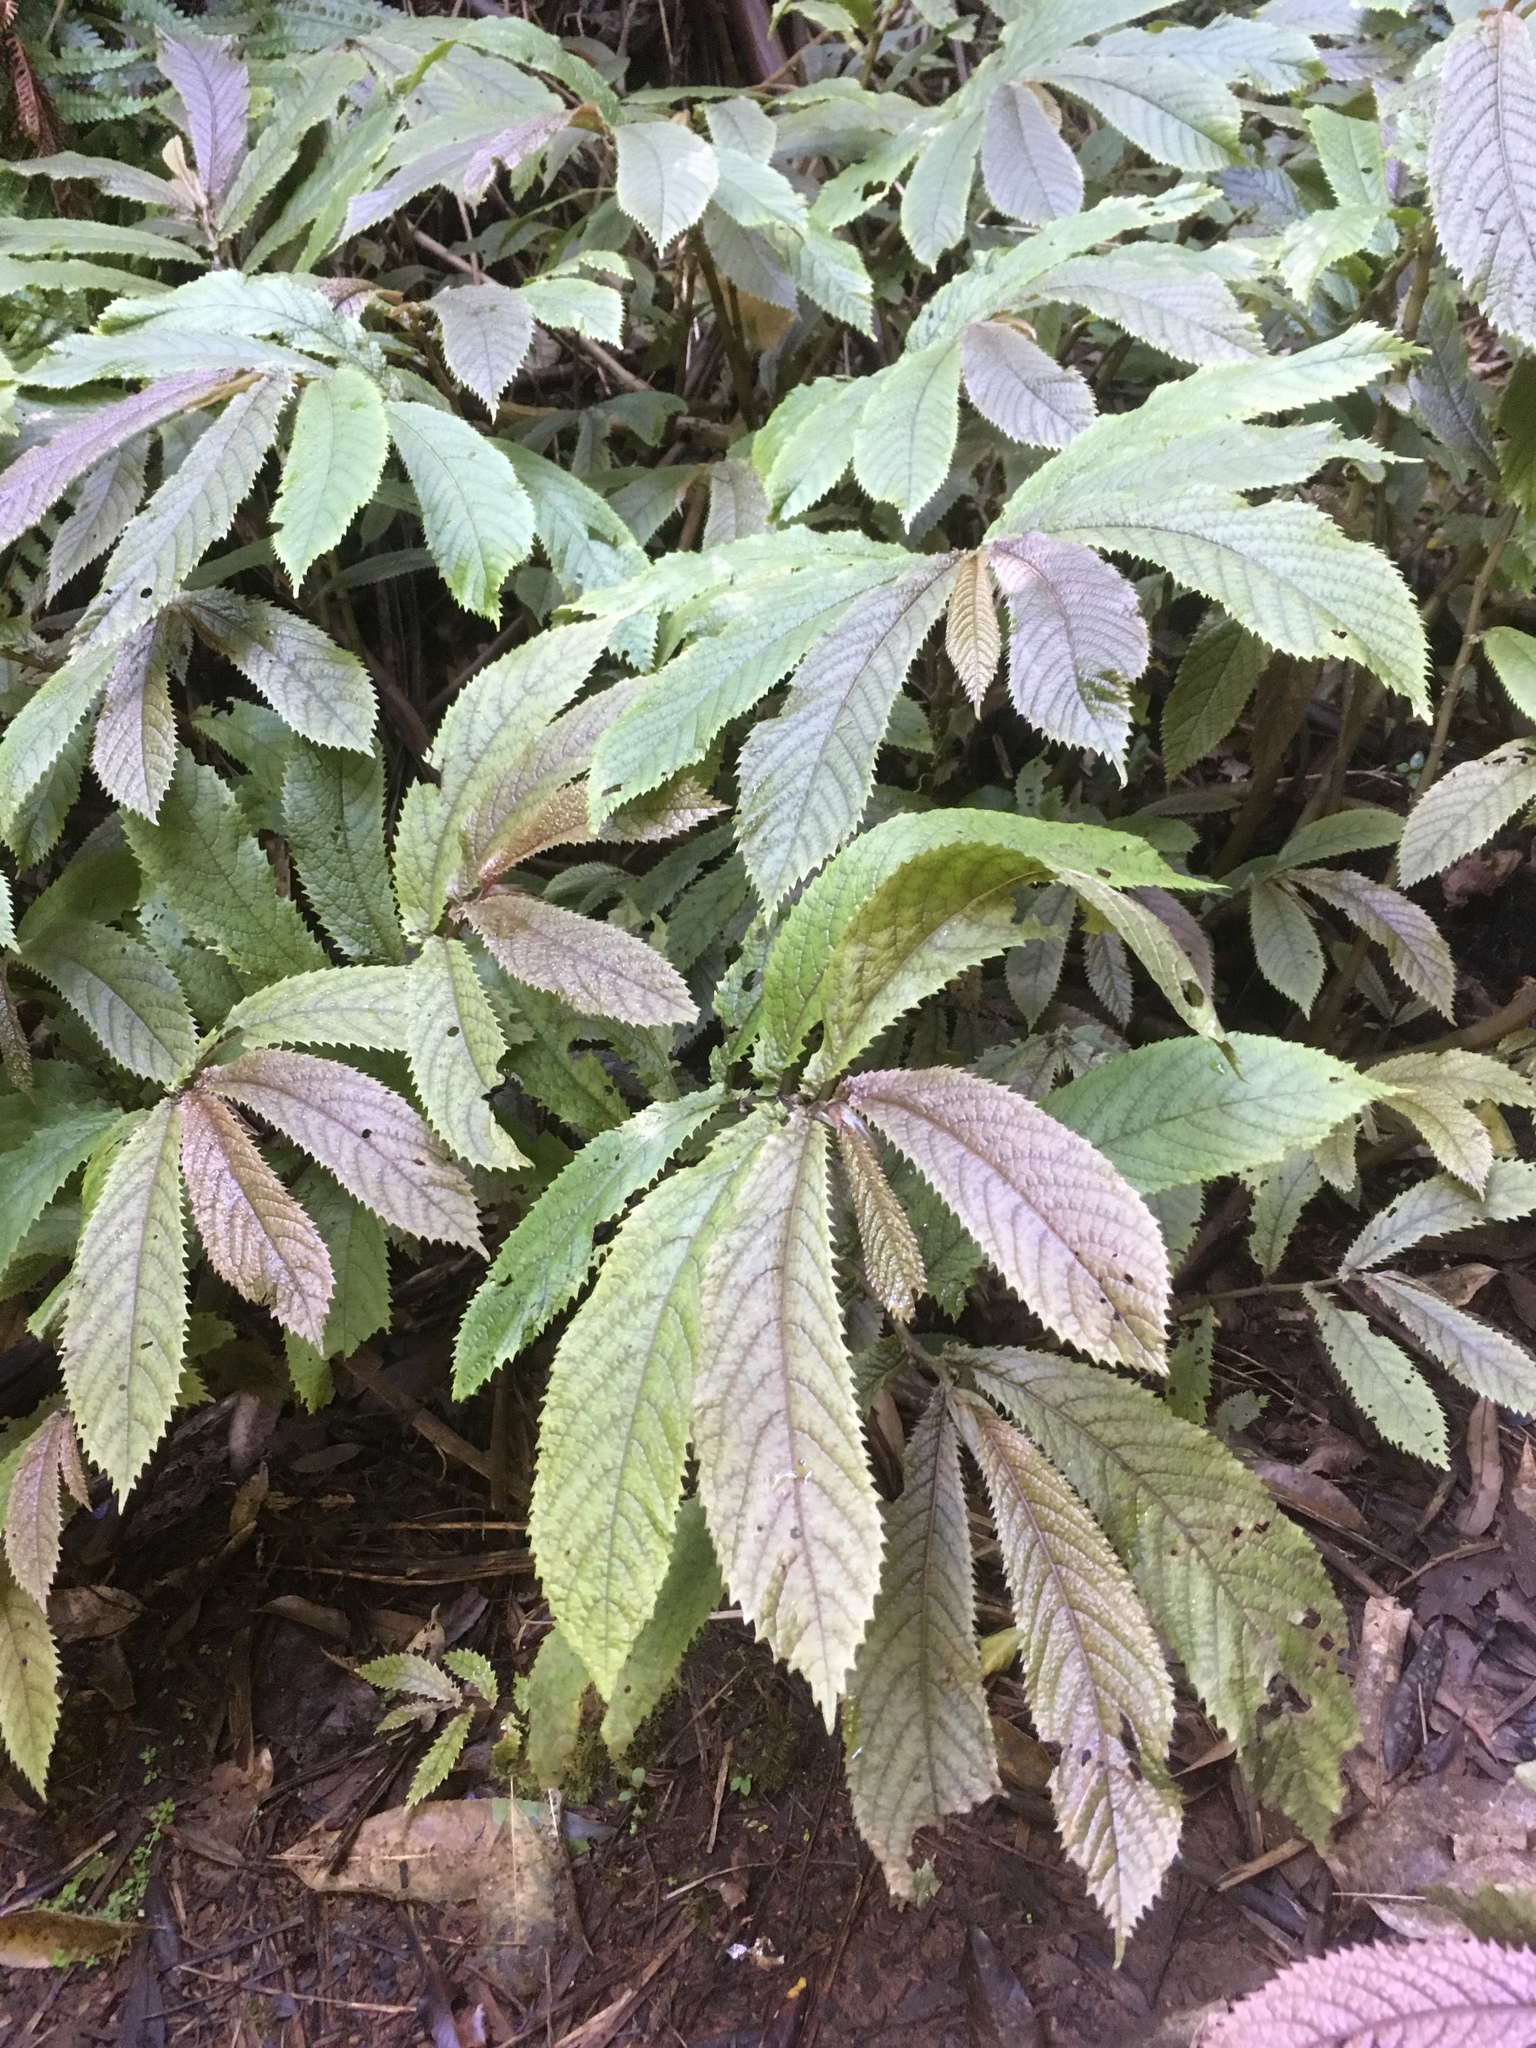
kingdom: Plantae
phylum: Tracheophyta
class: Magnoliopsida
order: Rosales
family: Urticaceae
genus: Elatostema
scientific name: Elatostema rugosum
